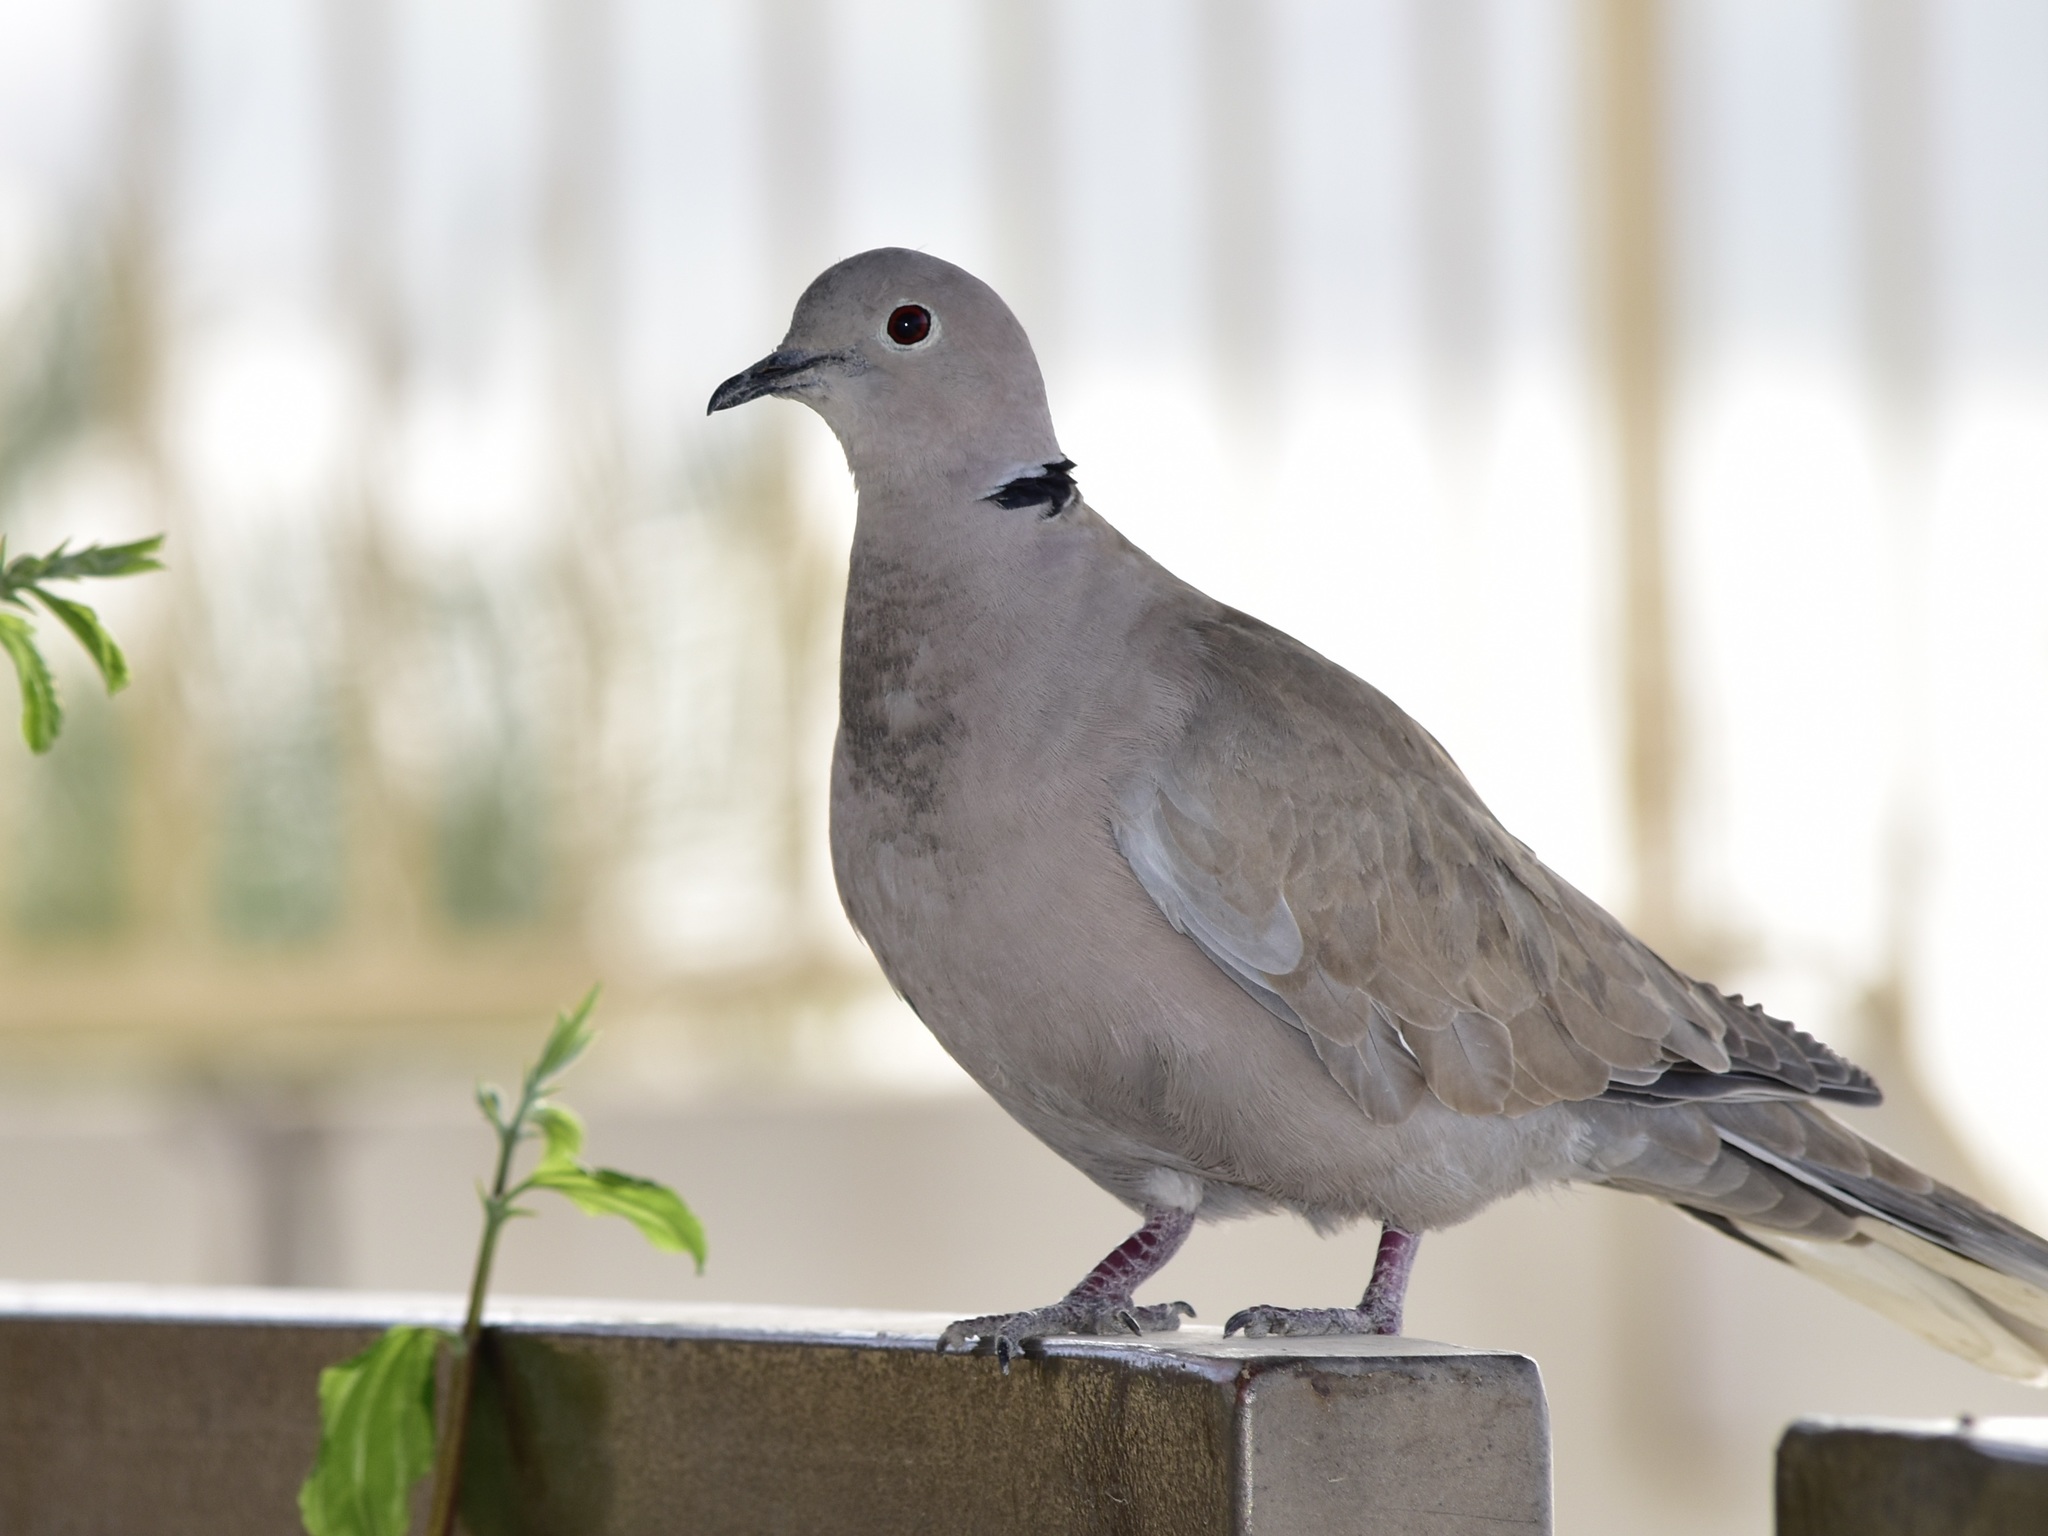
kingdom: Animalia
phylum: Chordata
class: Aves
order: Columbiformes
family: Columbidae
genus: Streptopelia
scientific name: Streptopelia decaocto
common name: Eurasian collared dove
